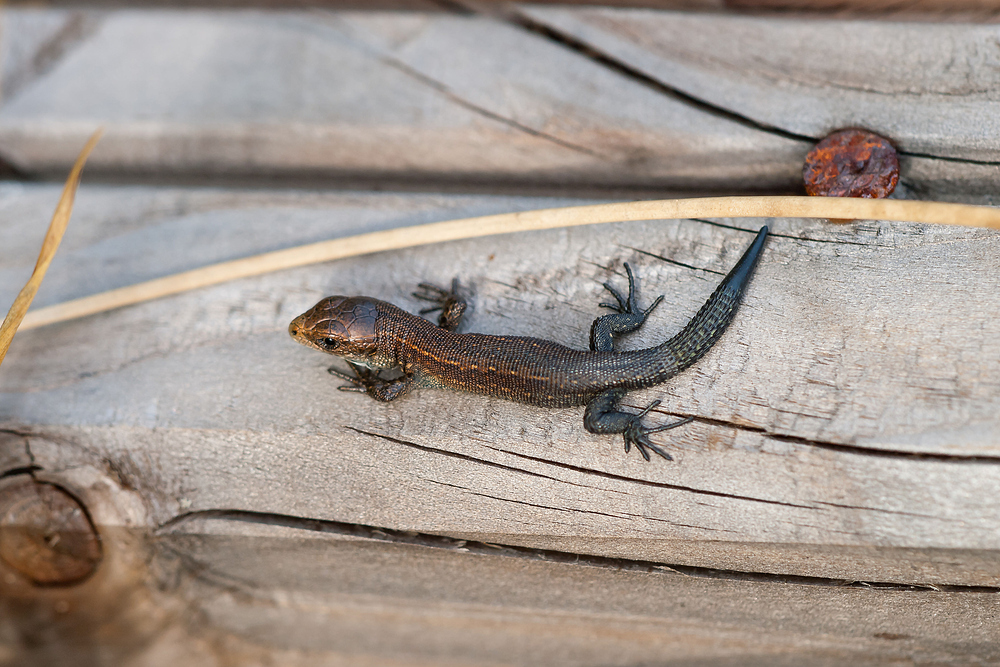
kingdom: Animalia
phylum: Chordata
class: Squamata
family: Lacertidae
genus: Zootoca
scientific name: Zootoca vivipara
